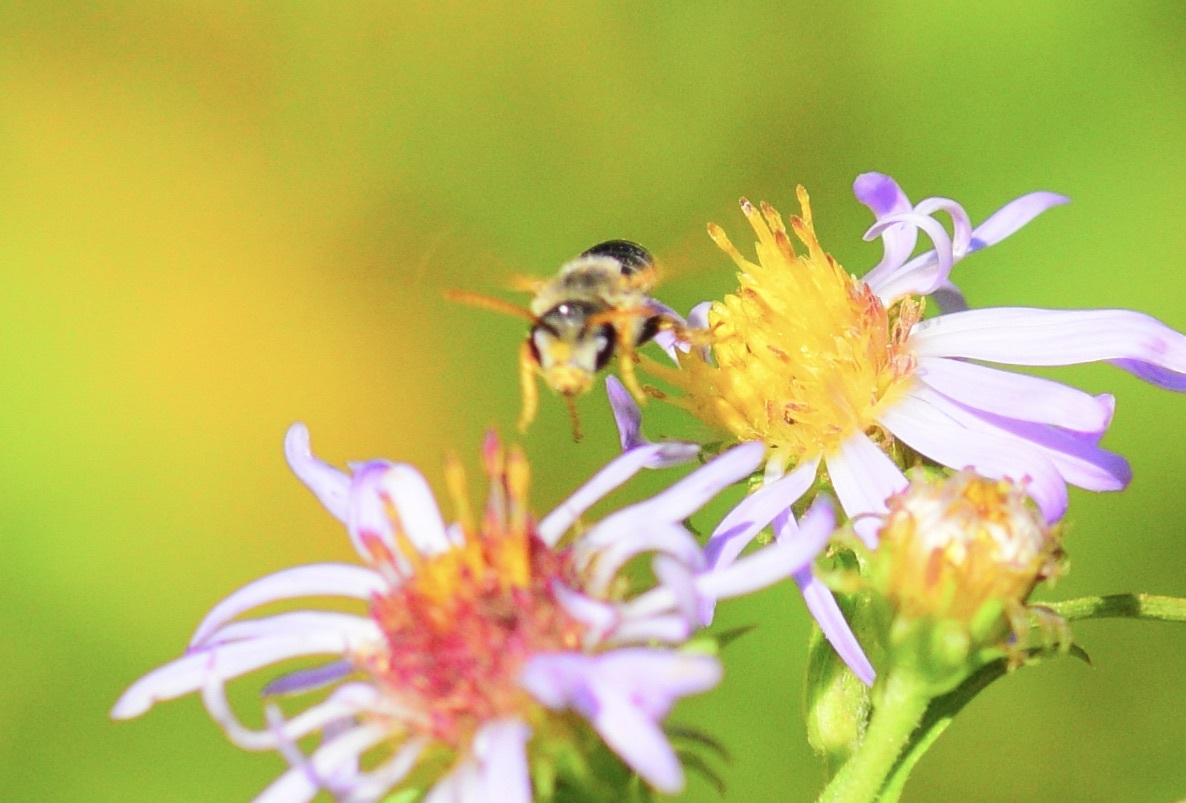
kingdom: Animalia
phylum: Arthropoda
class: Insecta
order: Hymenoptera
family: Halictidae
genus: Halictus
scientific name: Halictus ligatus
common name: Ligated furrow bee
